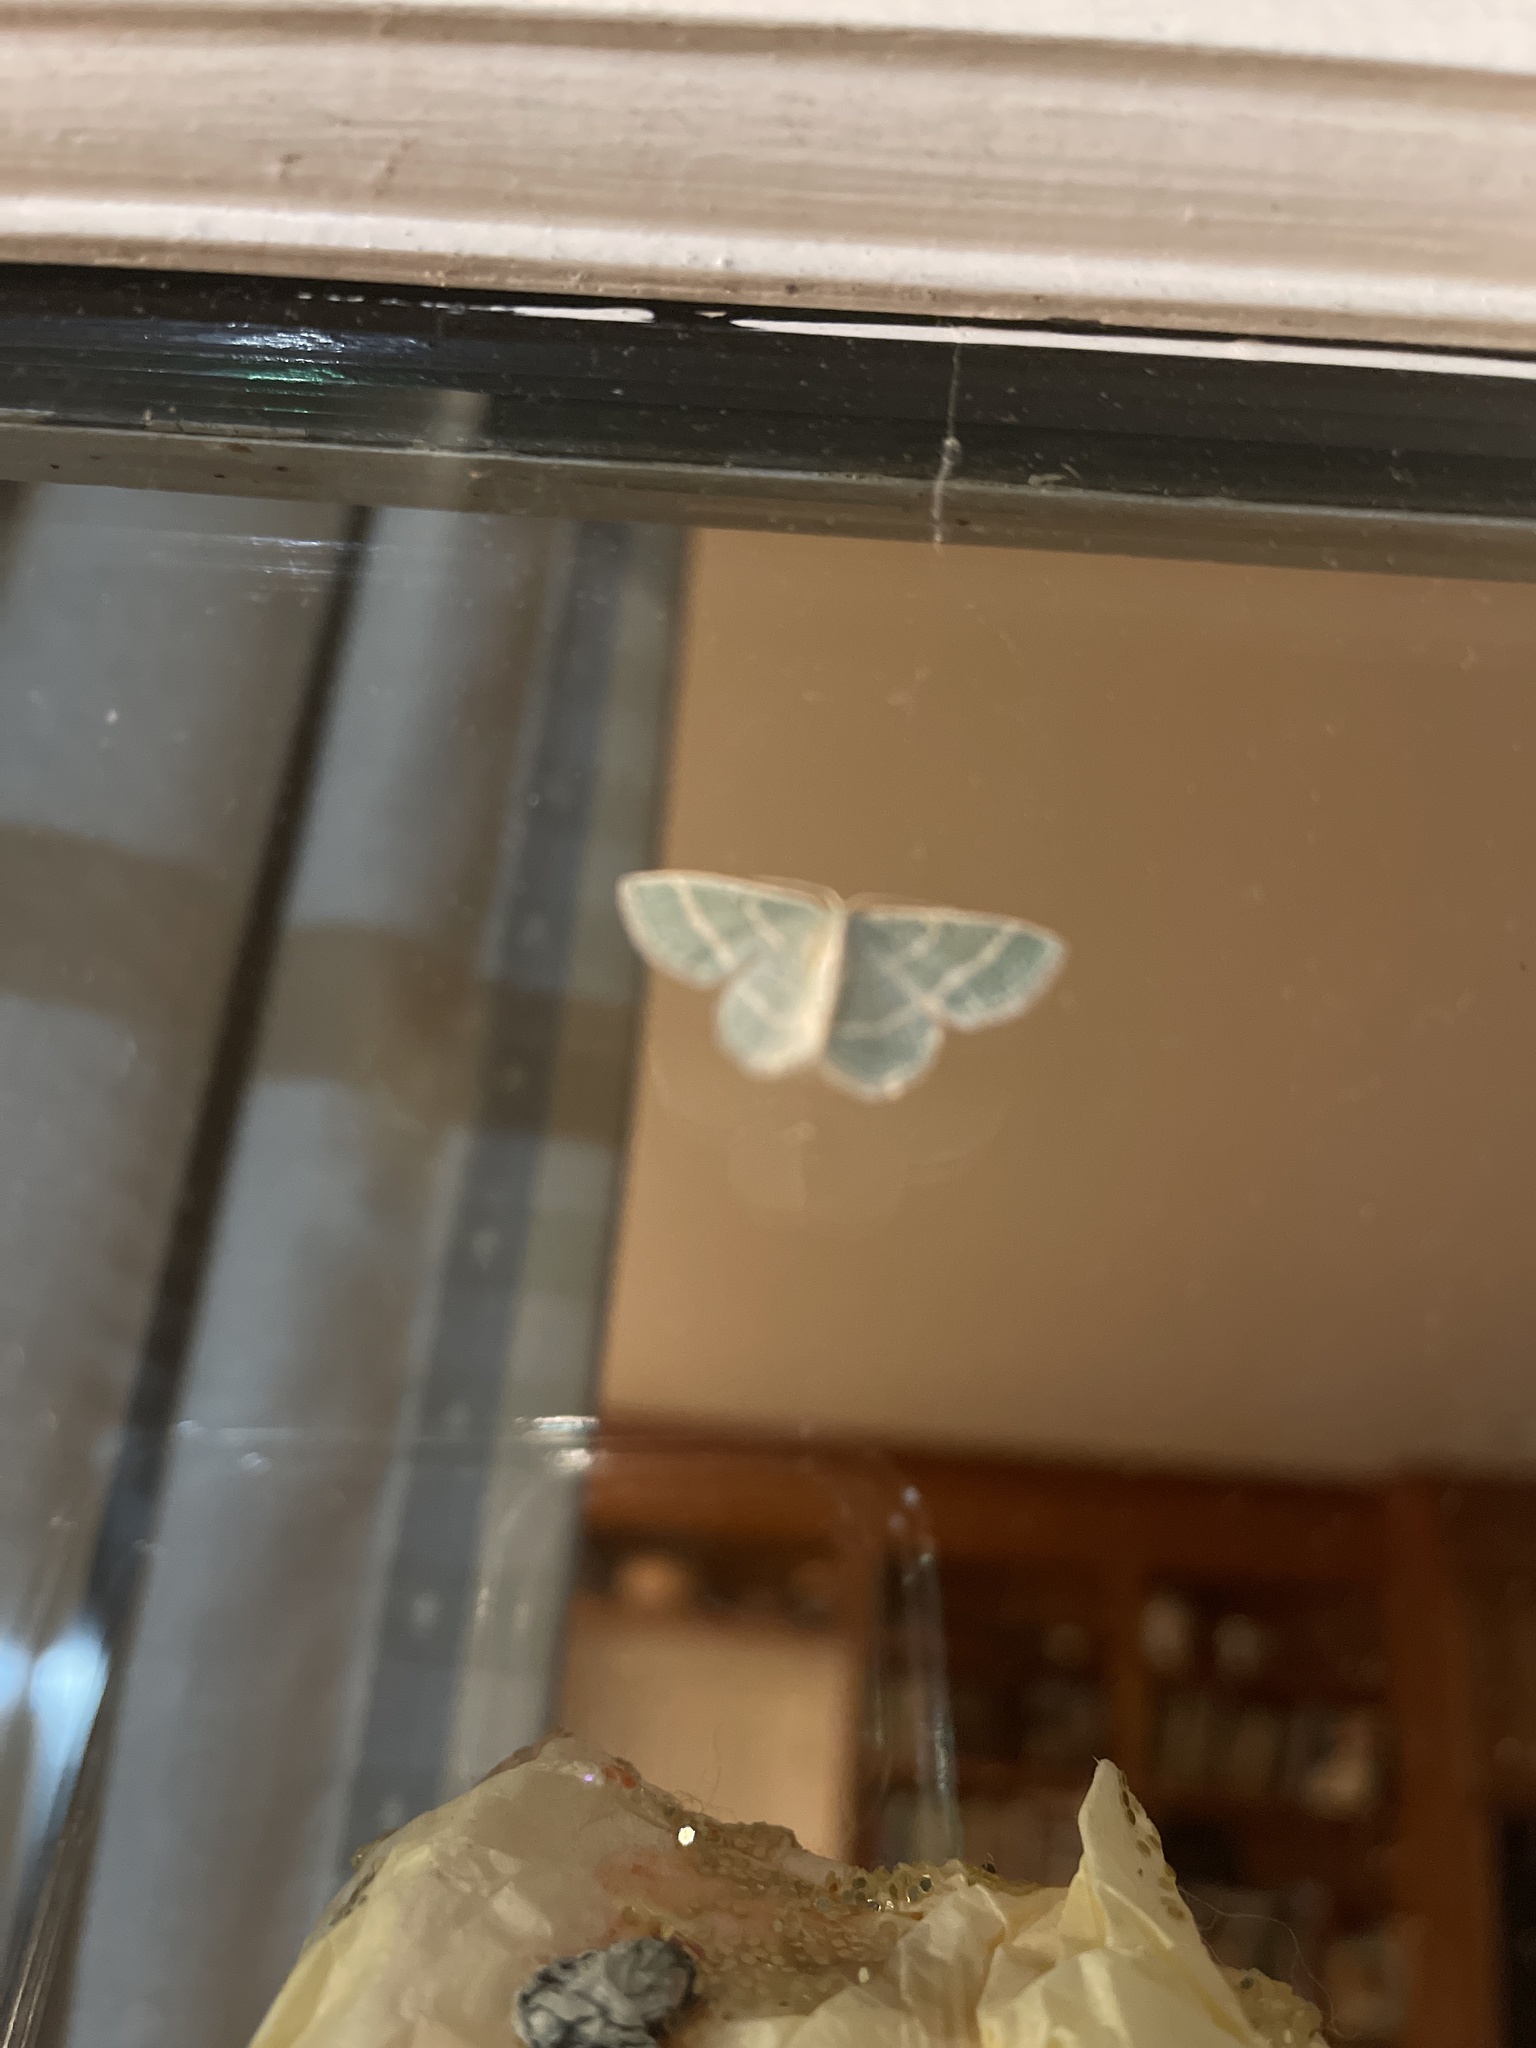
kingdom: Animalia
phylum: Arthropoda
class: Insecta
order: Lepidoptera
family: Geometridae
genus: Chlorochlamys
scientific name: Chlorochlamys chloroleucaria
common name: Blackberry looper
